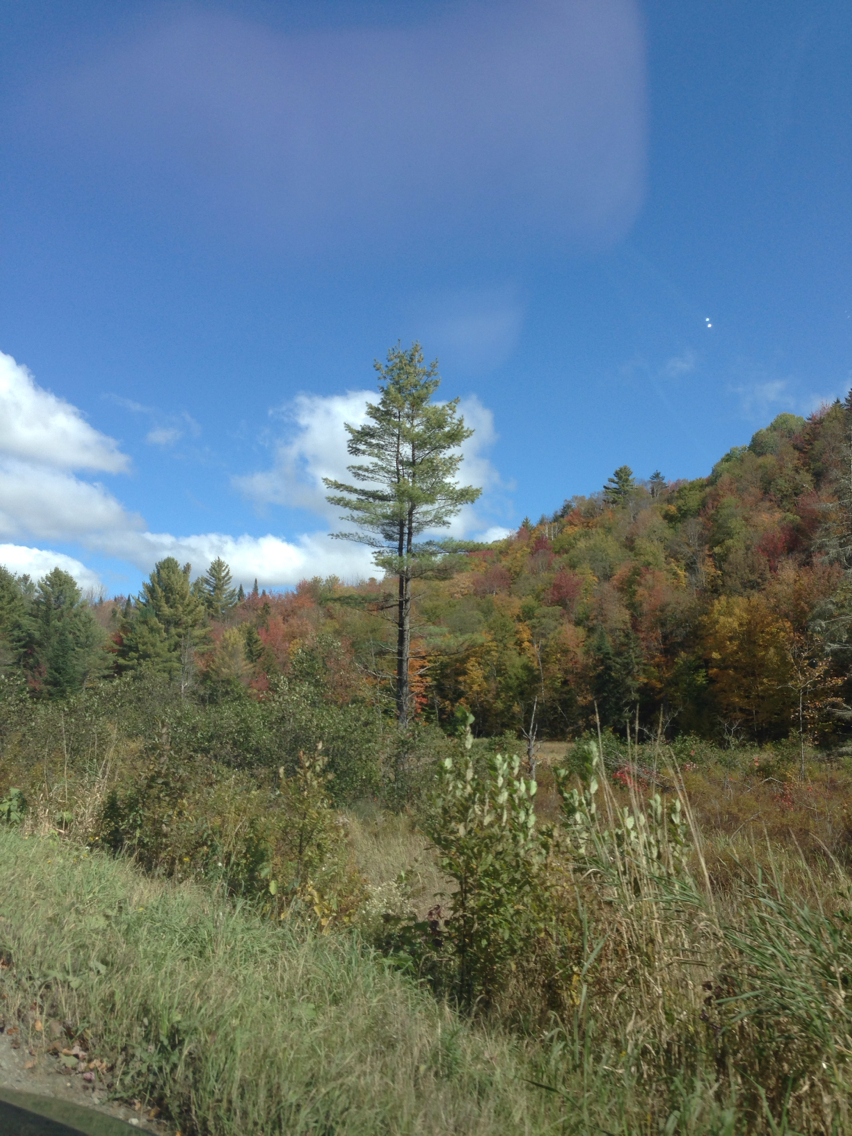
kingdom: Plantae
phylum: Tracheophyta
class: Pinopsida
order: Pinales
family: Pinaceae
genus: Pinus
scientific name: Pinus strobus
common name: Weymouth pine
